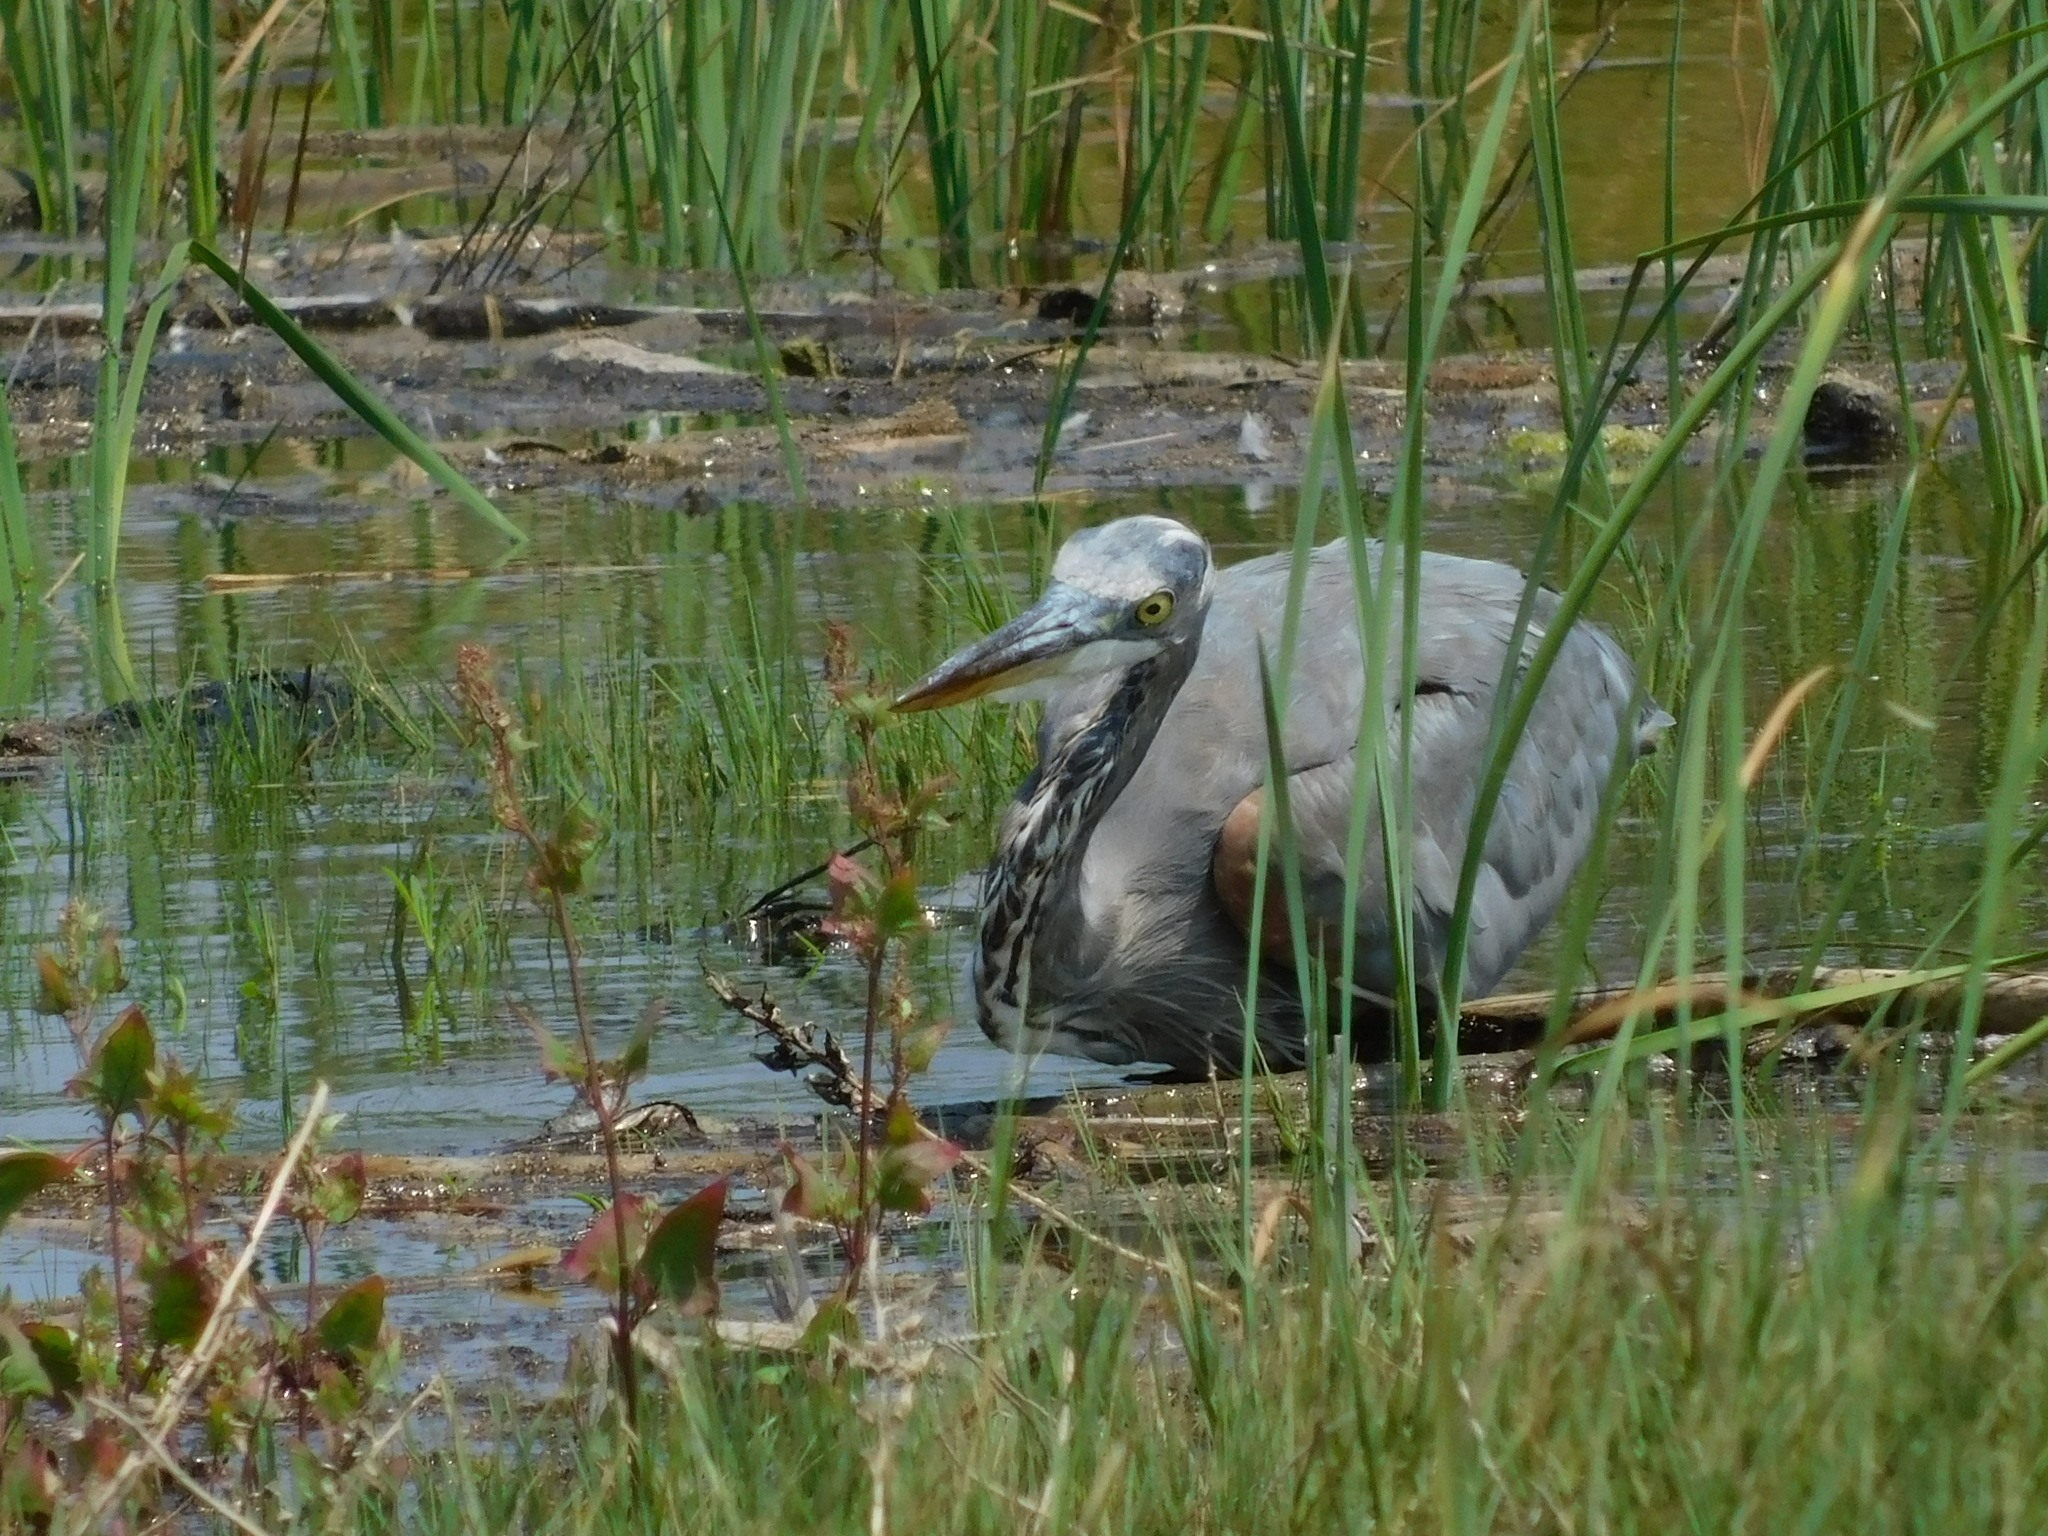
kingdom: Animalia
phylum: Chordata
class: Aves
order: Pelecaniformes
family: Ardeidae
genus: Ardea
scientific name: Ardea herodias
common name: Great blue heron
